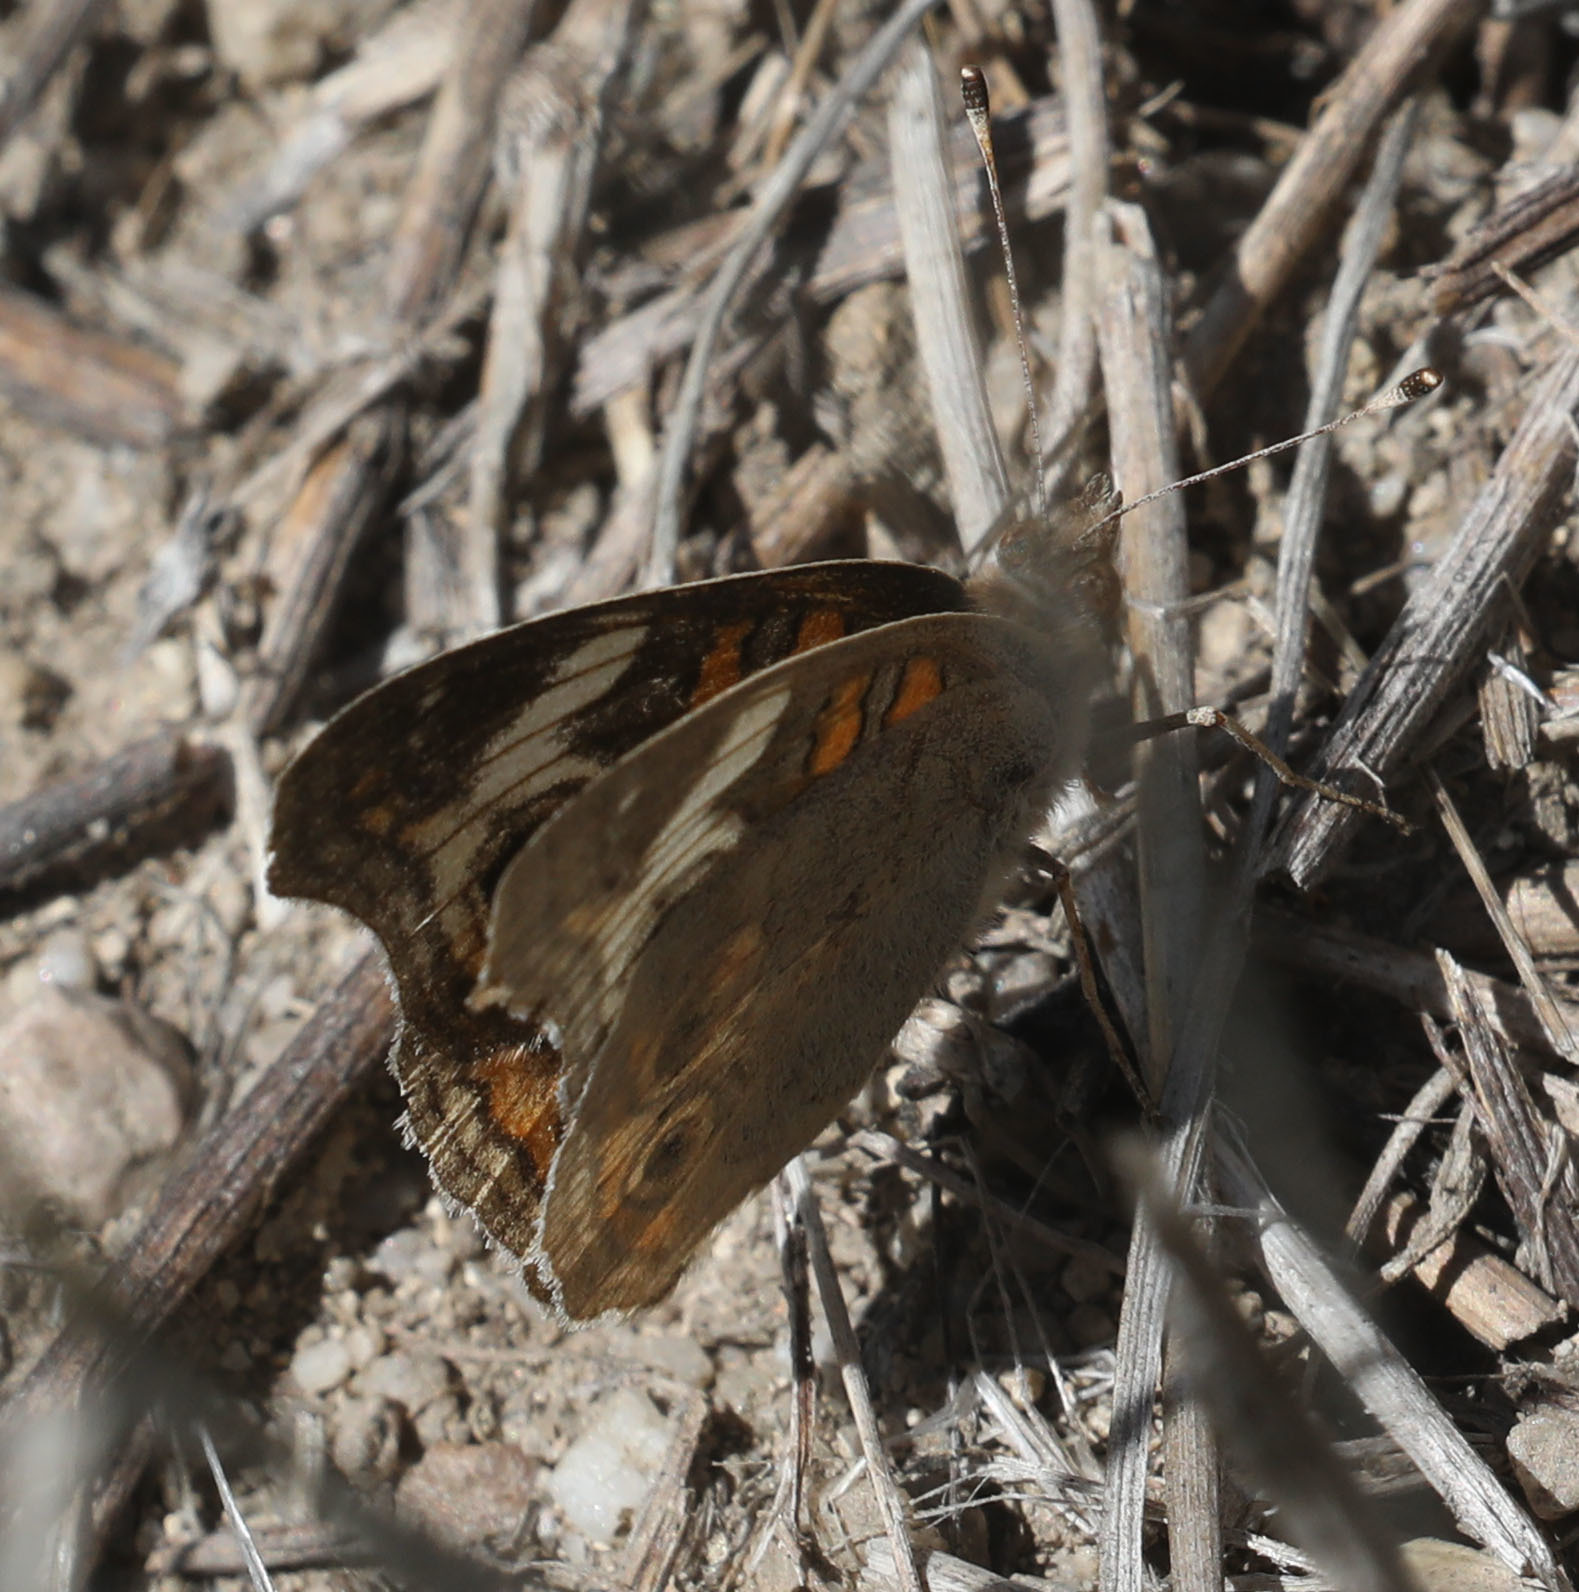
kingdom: Animalia
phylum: Arthropoda
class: Insecta
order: Lepidoptera
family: Nymphalidae
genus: Junonia
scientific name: Junonia grisea
